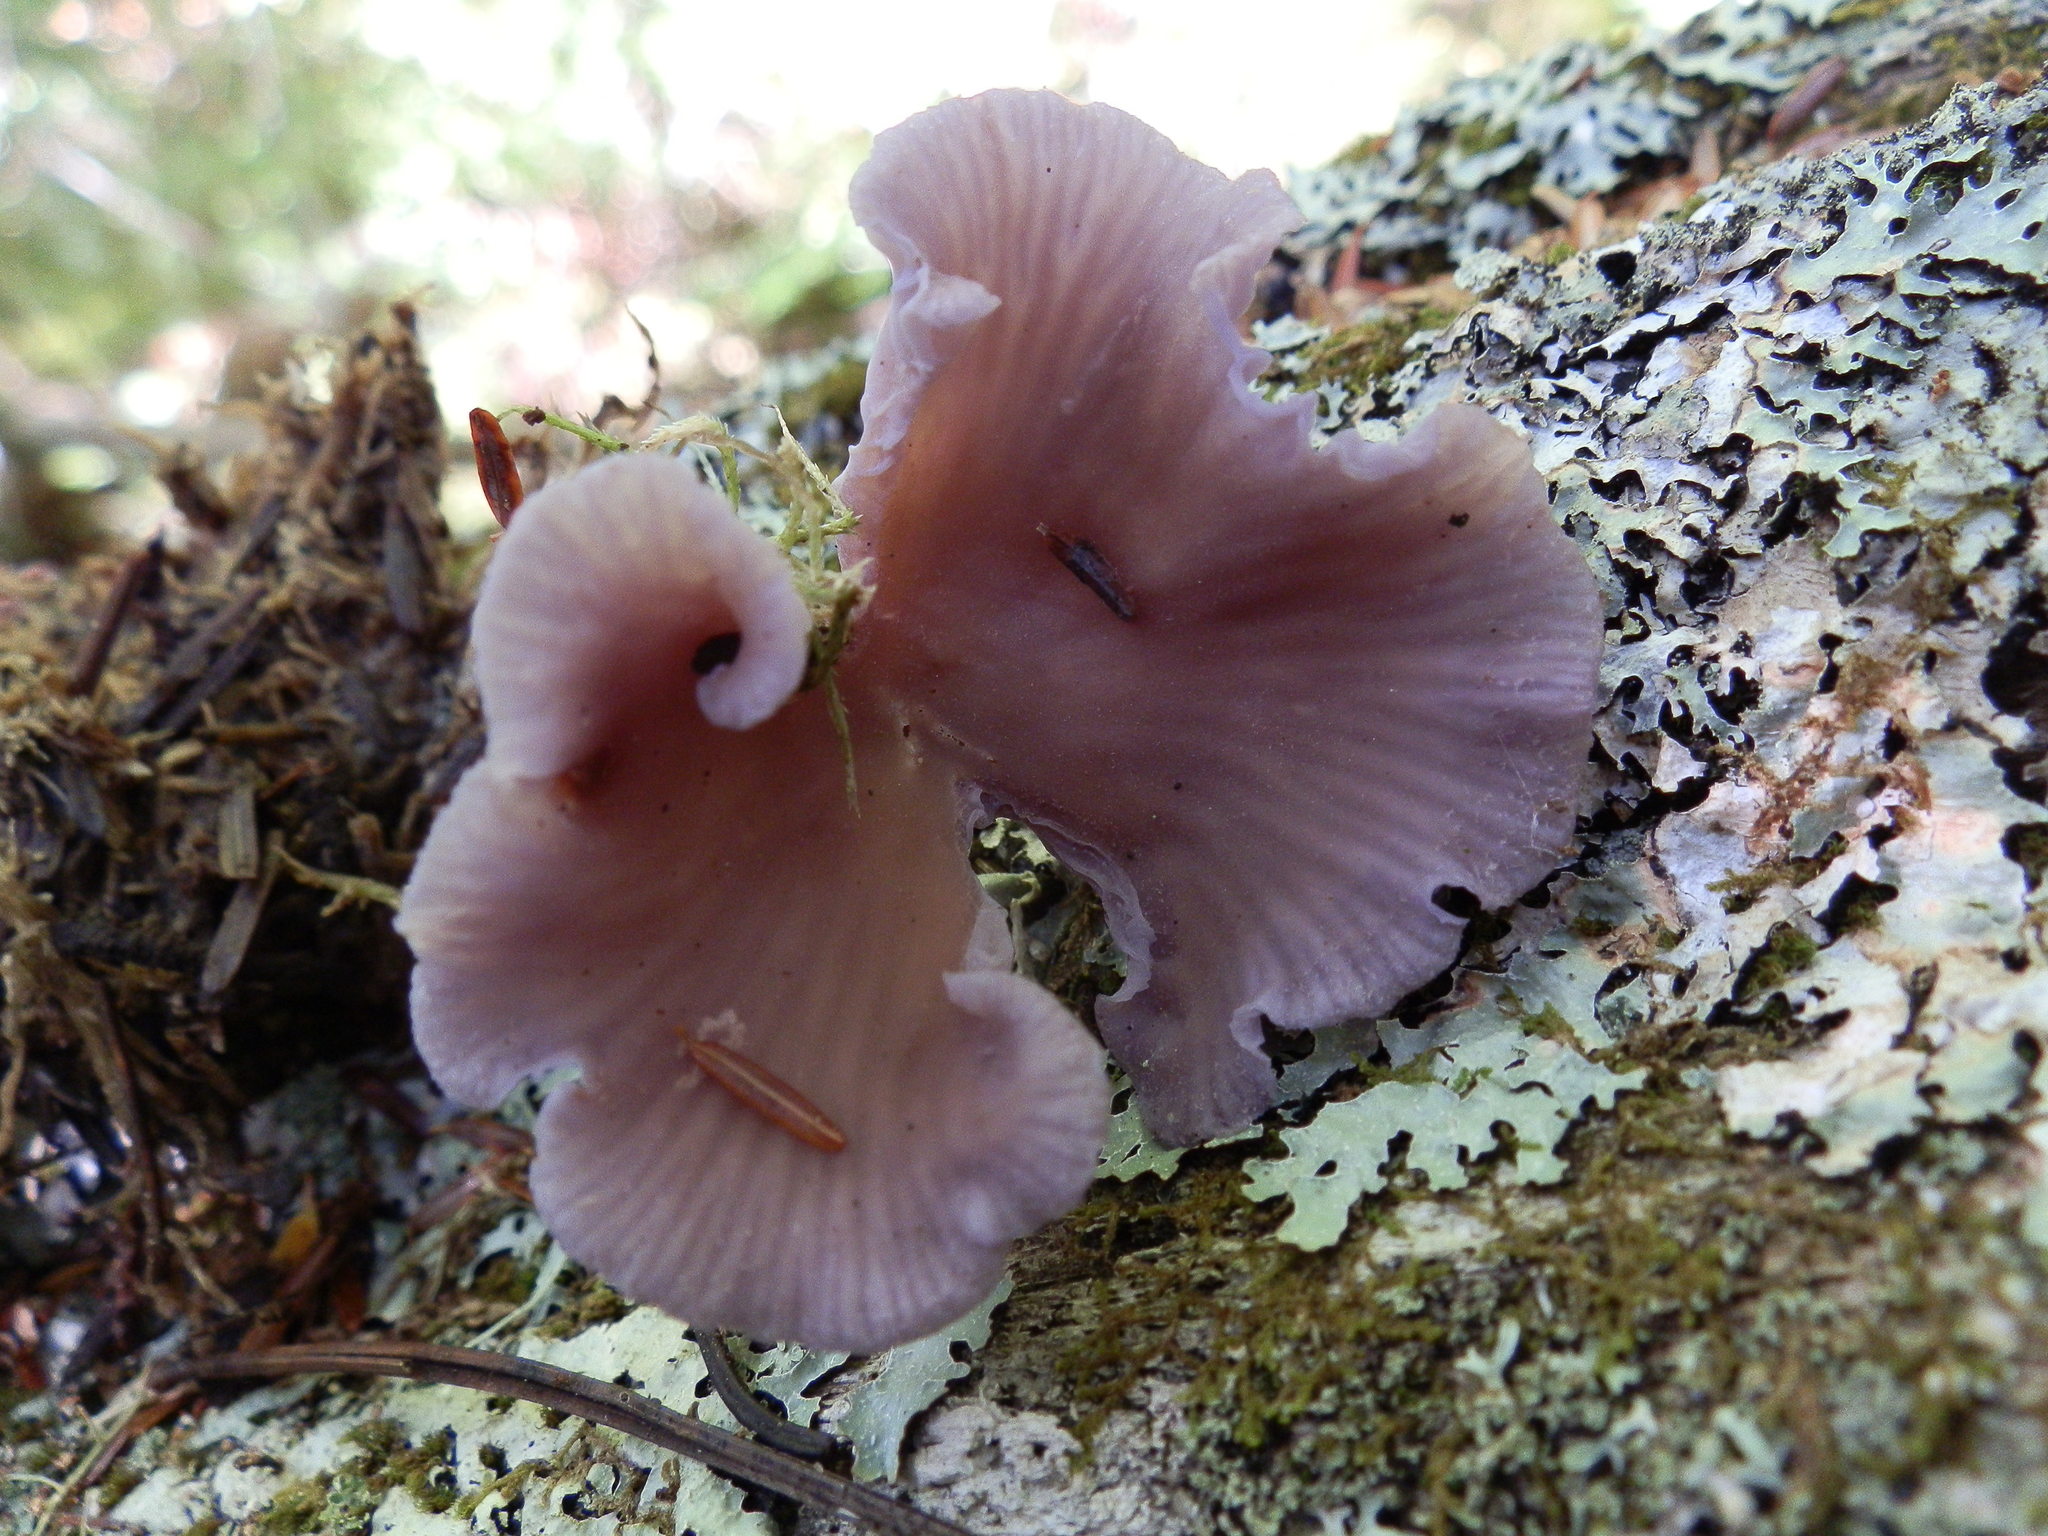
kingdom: Fungi
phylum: Basidiomycota
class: Agaricomycetes
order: Agaricales
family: Hydnangiaceae
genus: Laccaria
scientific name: Laccaria amethystina
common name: Amethyst deceiver
